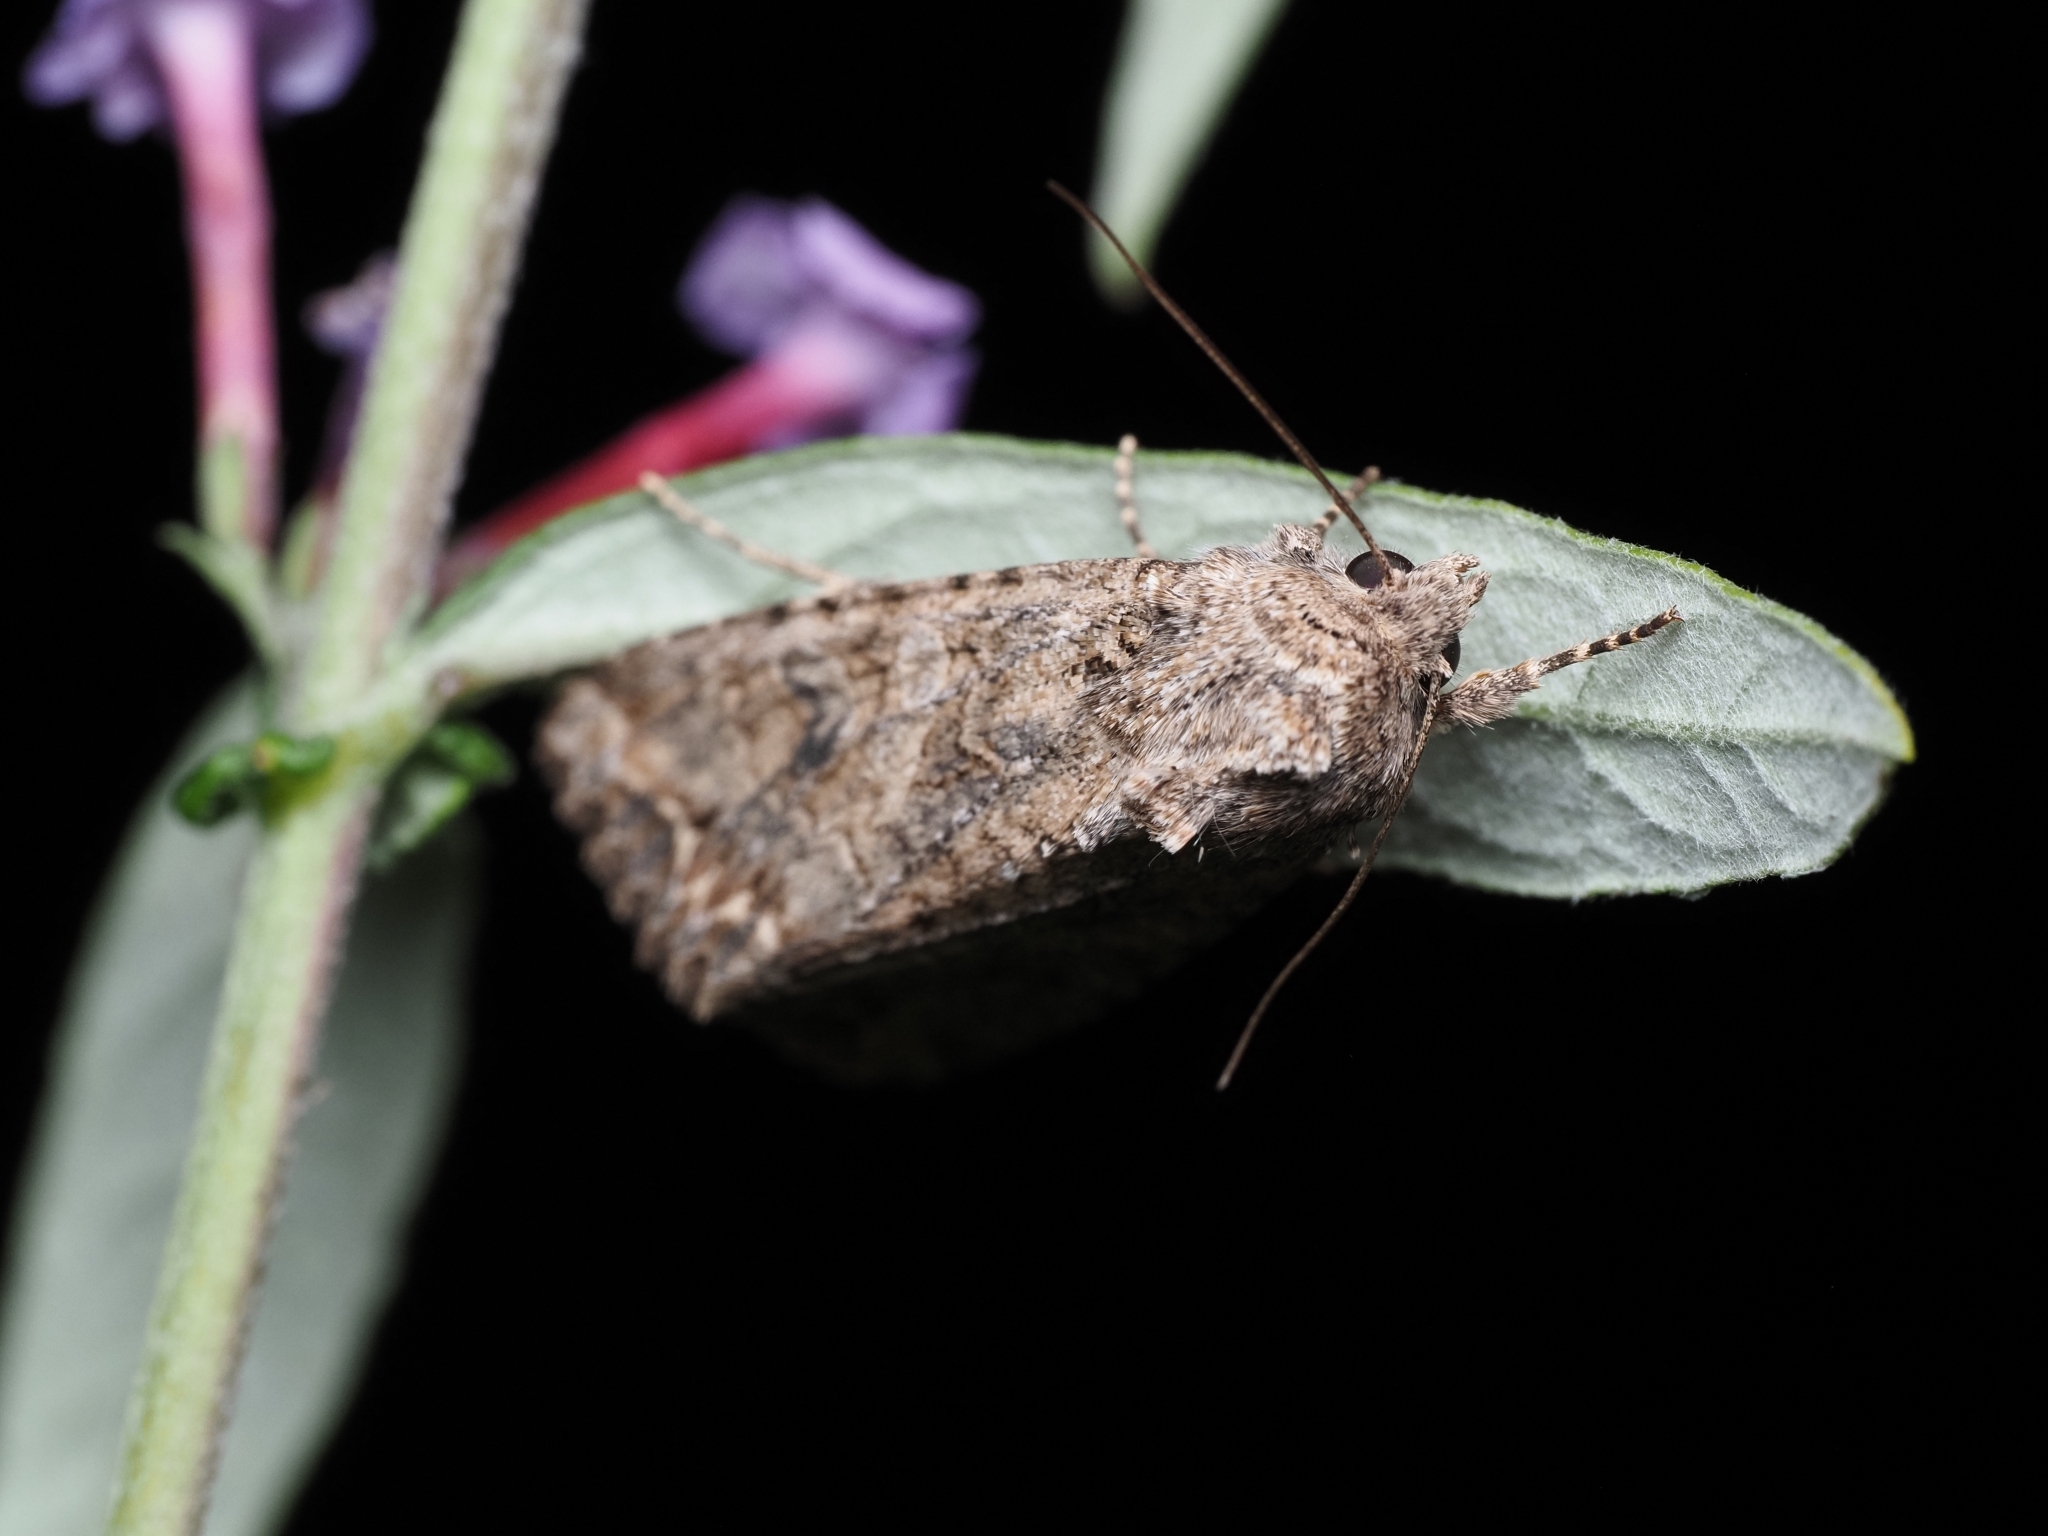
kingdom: Animalia
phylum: Arthropoda
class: Insecta
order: Lepidoptera
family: Noctuidae
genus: Anarta
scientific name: Anarta trifolii
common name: Clover cutworm moth
